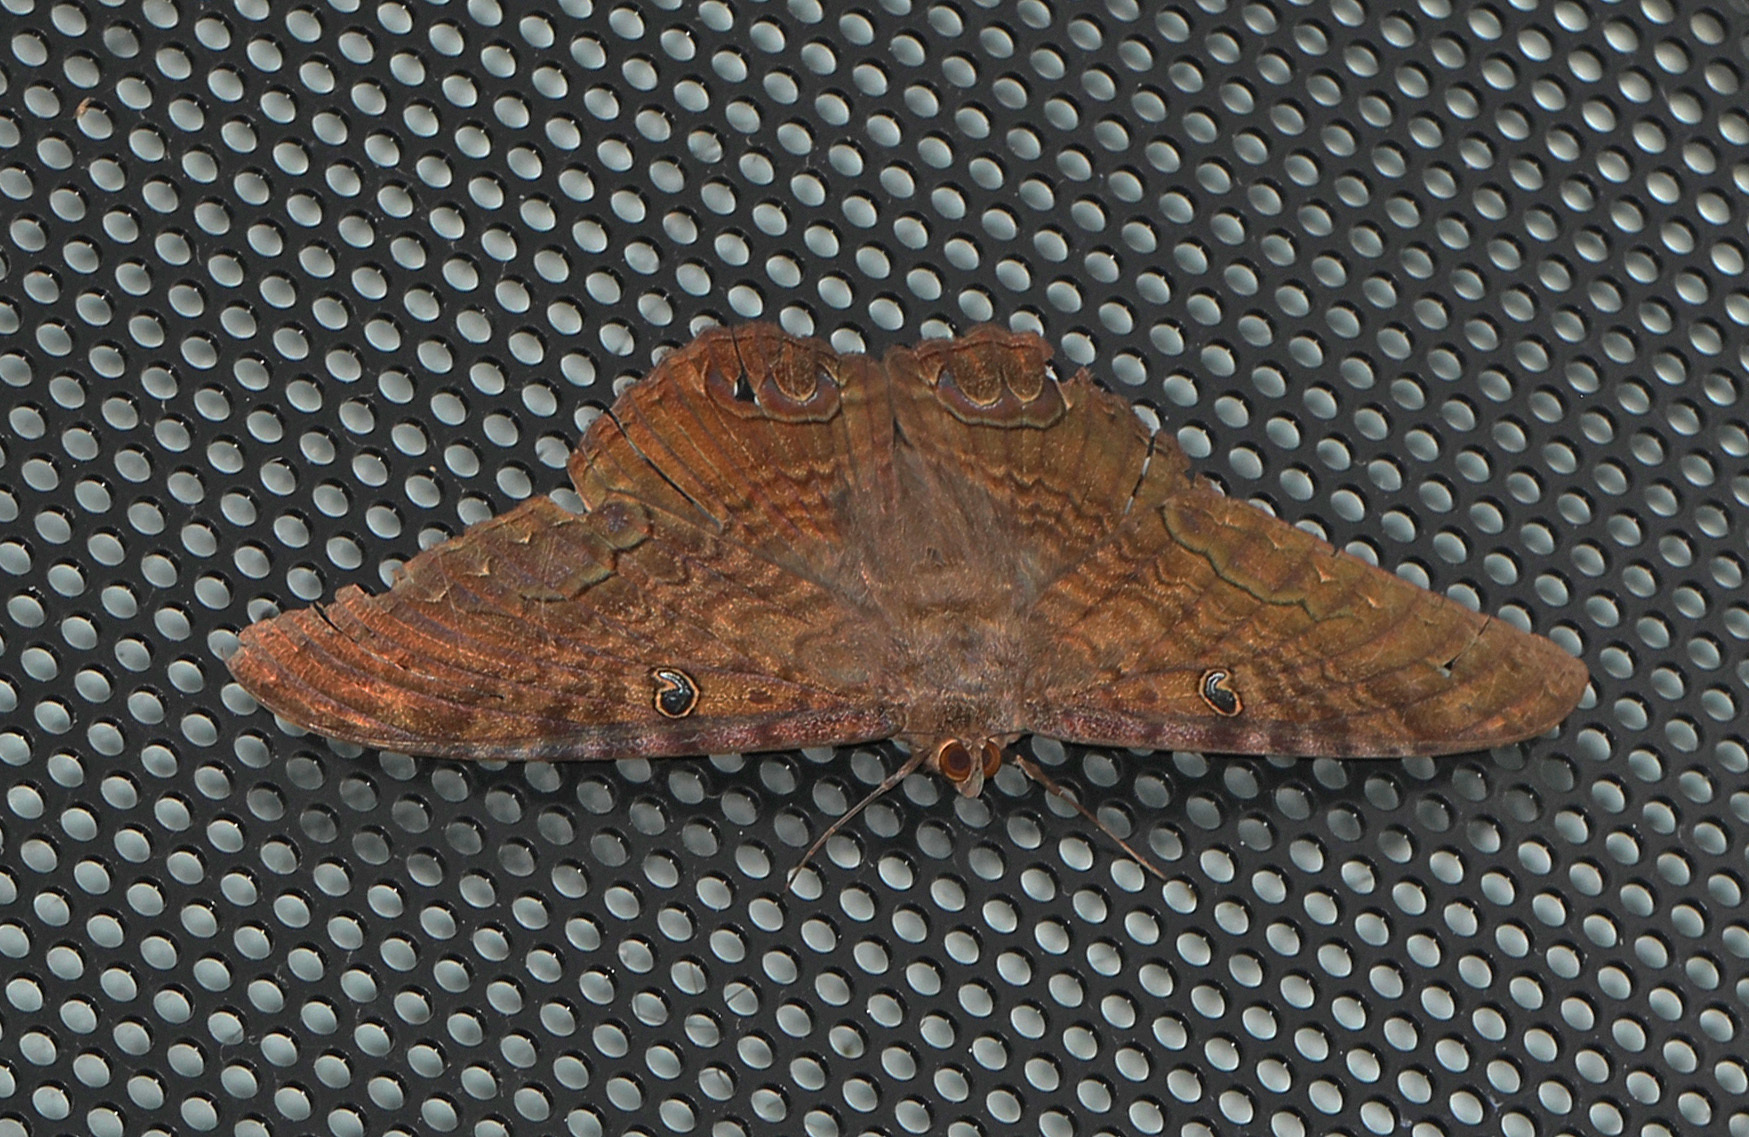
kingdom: Animalia
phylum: Arthropoda
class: Insecta
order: Lepidoptera
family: Erebidae
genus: Ascalapha
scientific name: Ascalapha odorata
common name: Black witch
